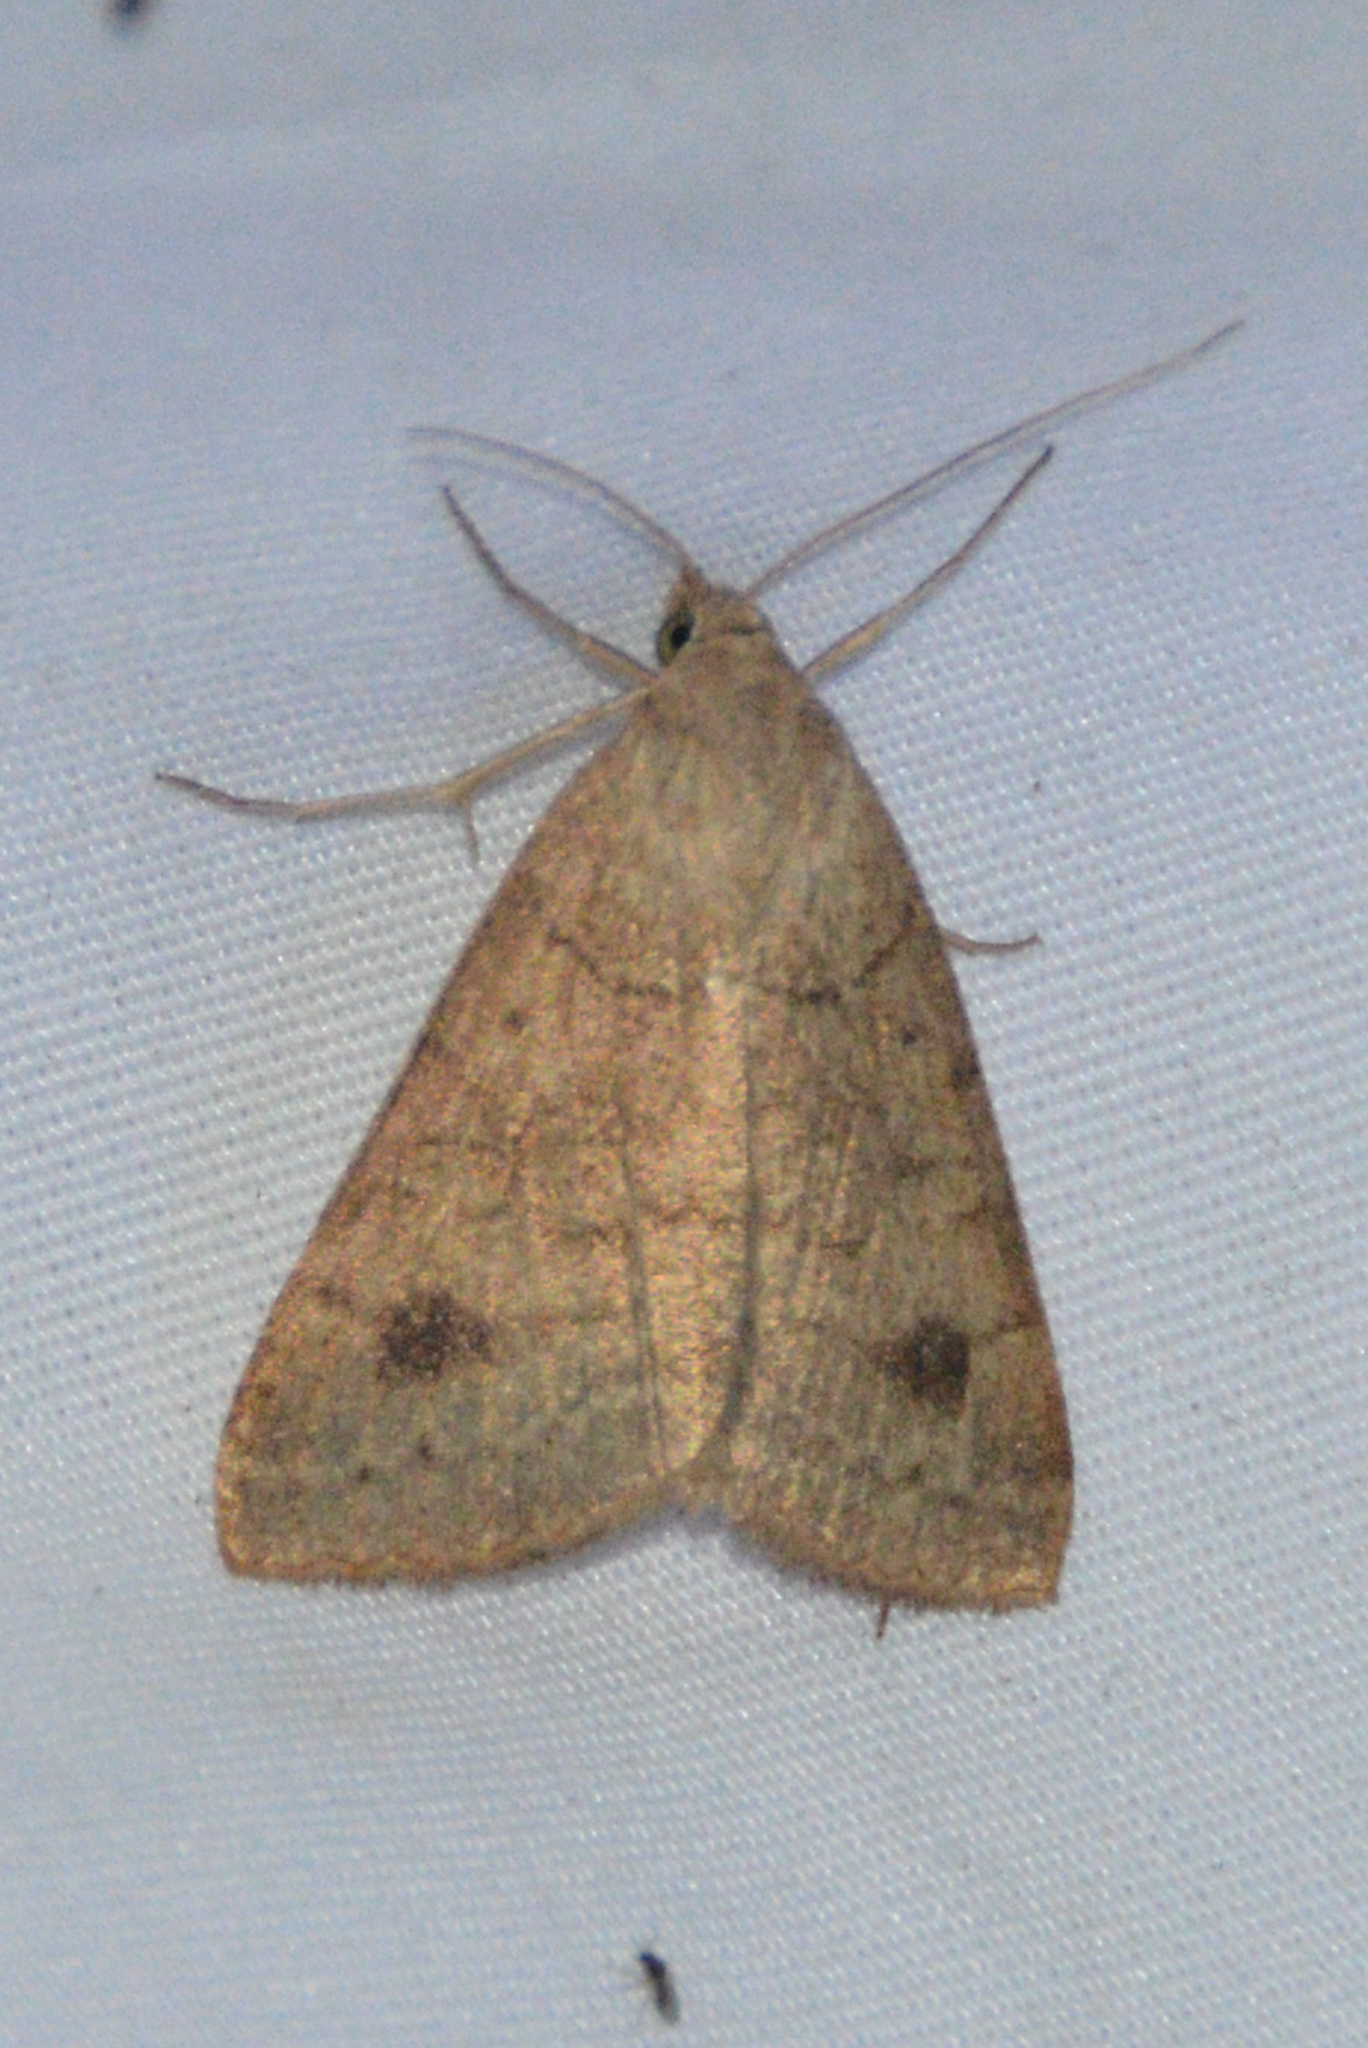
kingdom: Animalia
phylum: Arthropoda
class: Insecta
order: Lepidoptera
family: Erebidae
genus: Caenurgia
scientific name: Caenurgia chloropha
